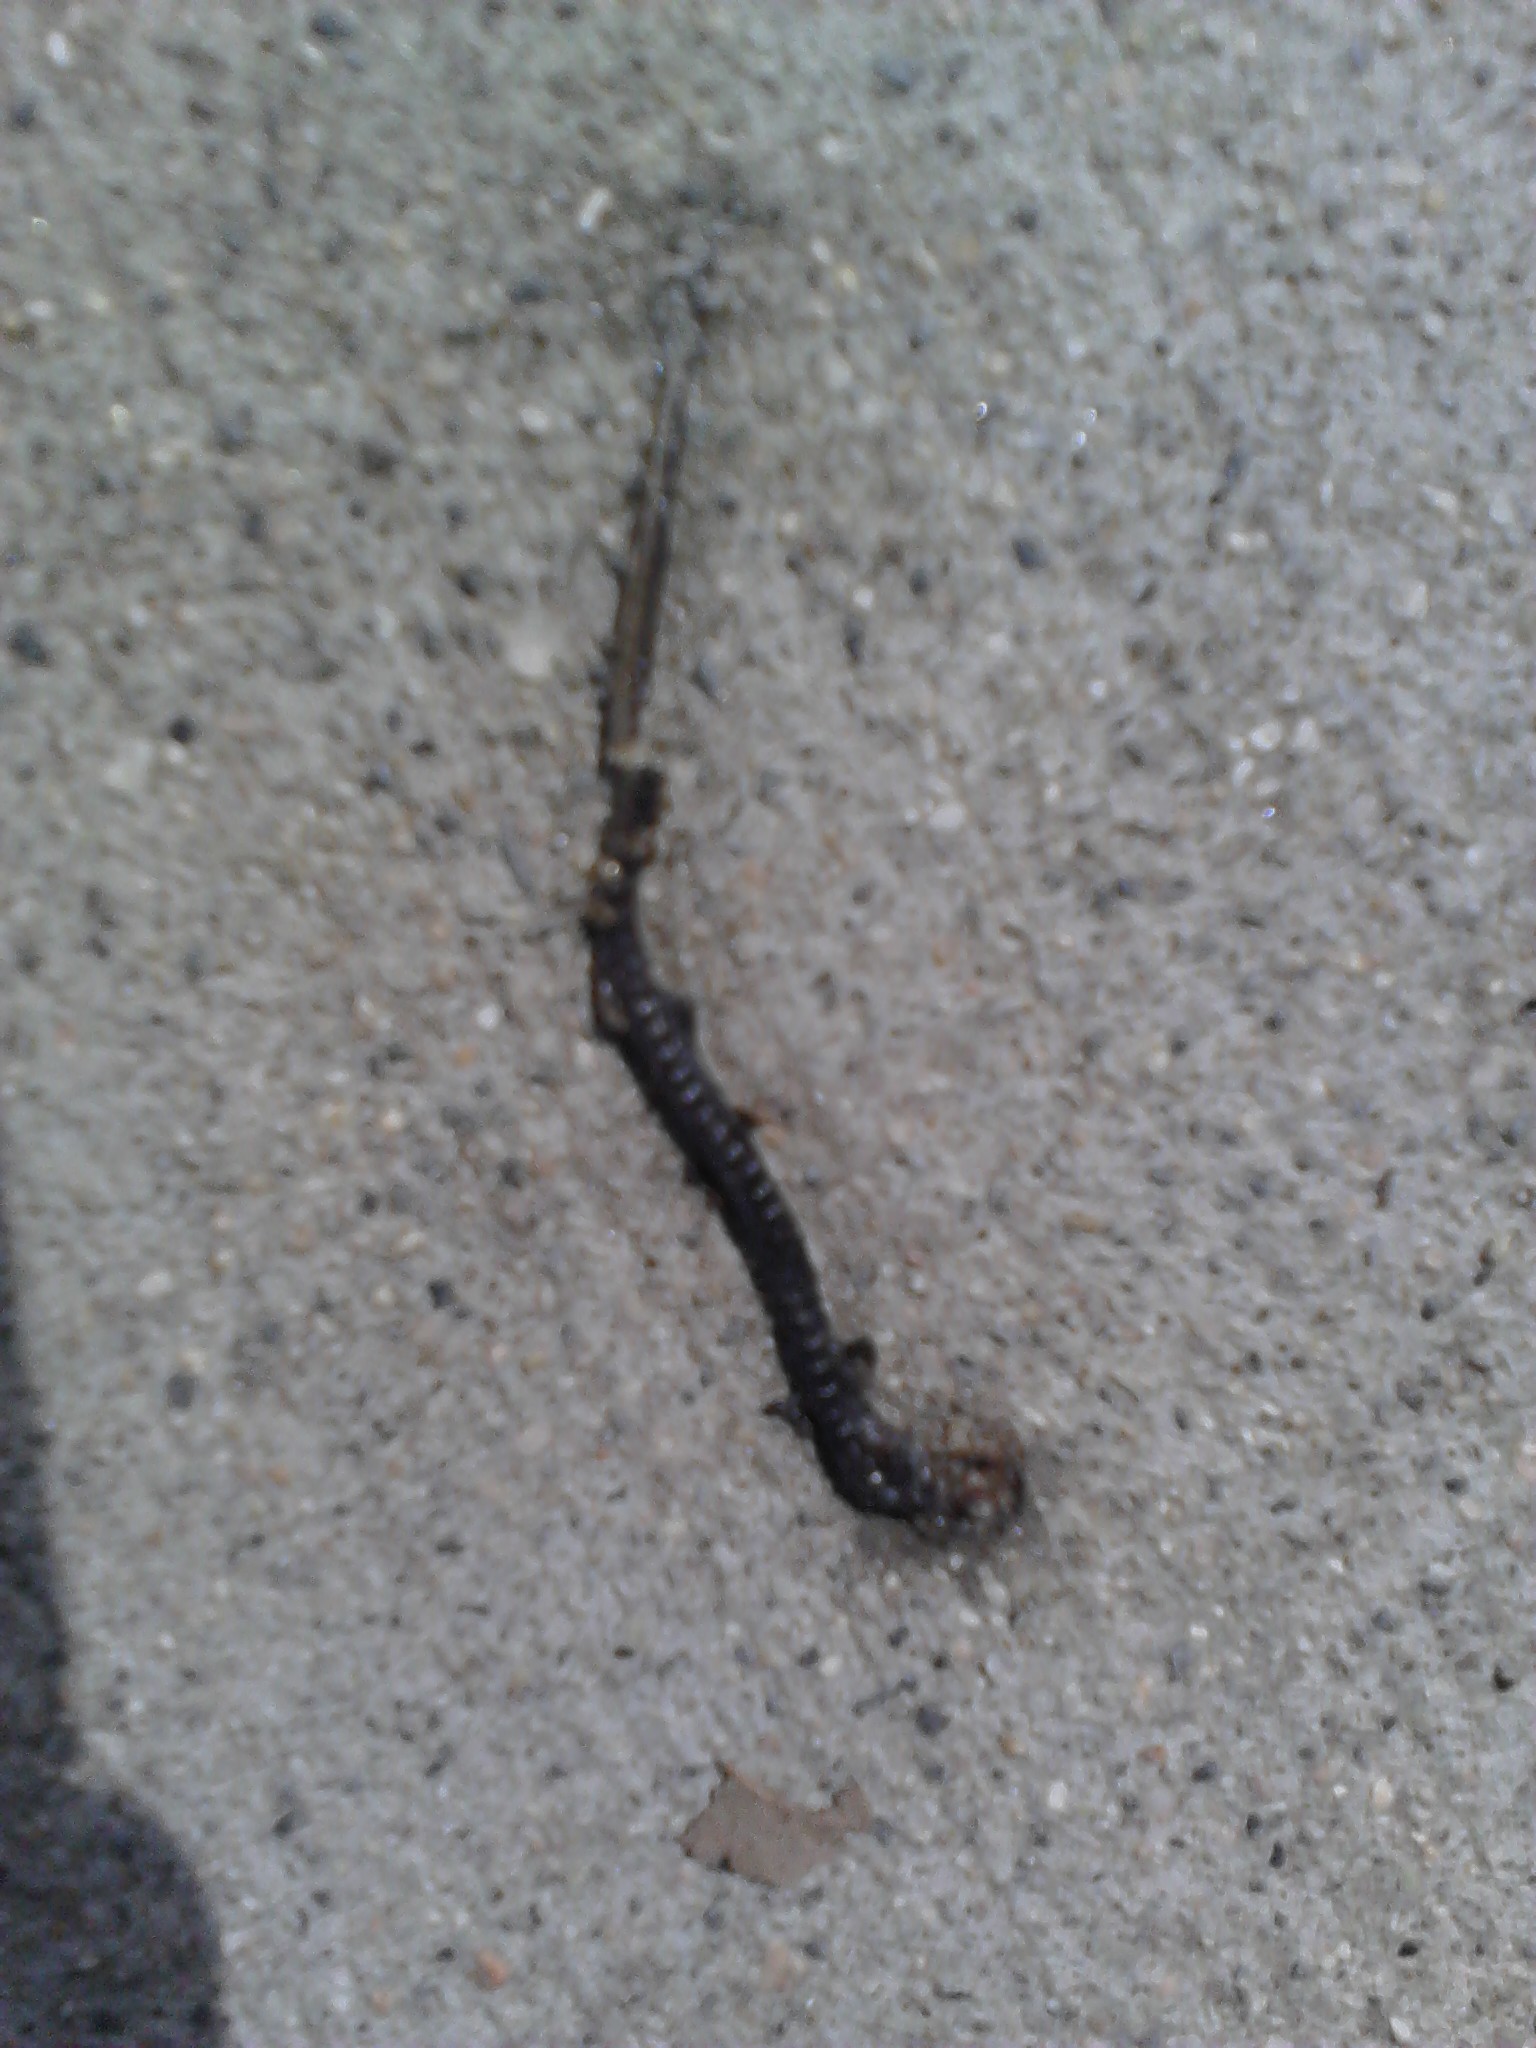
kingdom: Animalia
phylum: Chordata
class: Amphibia
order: Caudata
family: Plethodontidae
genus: Batrachoseps
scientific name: Batrachoseps major
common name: Garden slender salamander
